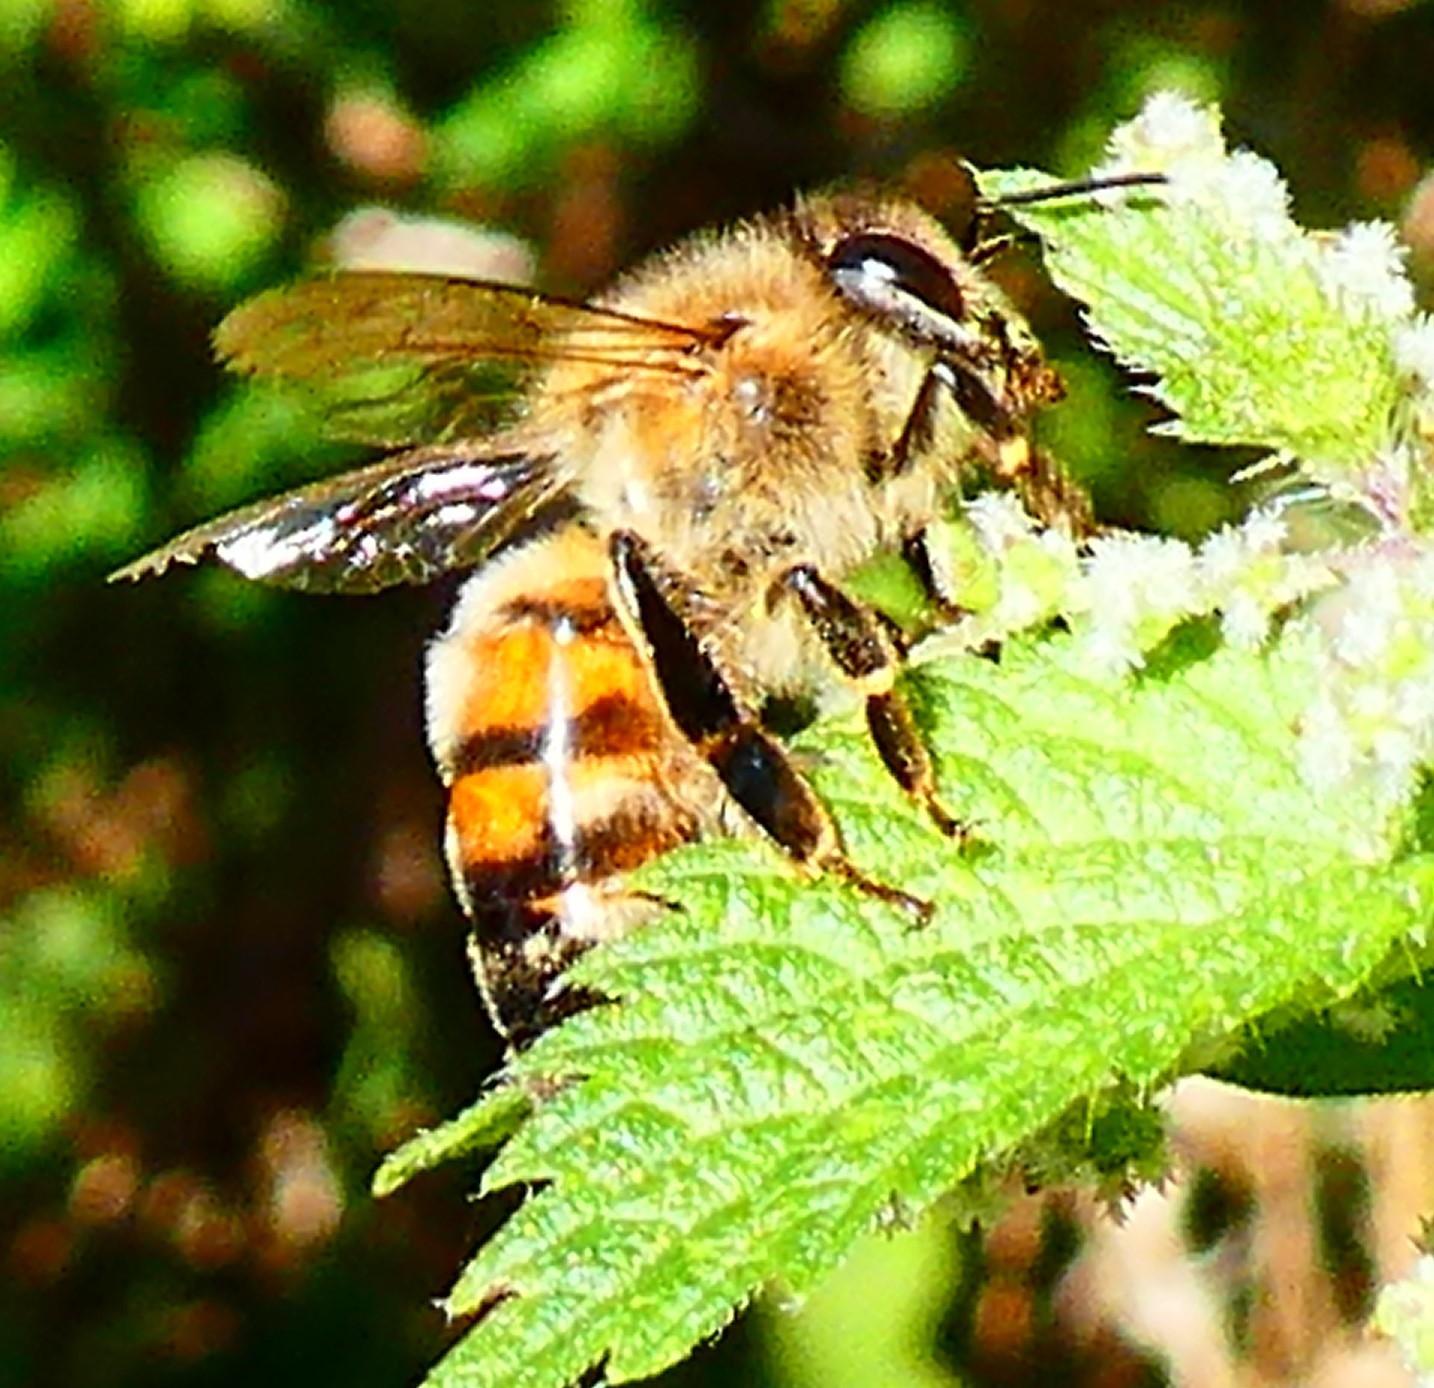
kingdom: Animalia
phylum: Arthropoda
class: Insecta
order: Hymenoptera
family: Apidae
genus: Apis
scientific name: Apis mellifera
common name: Honey bee
